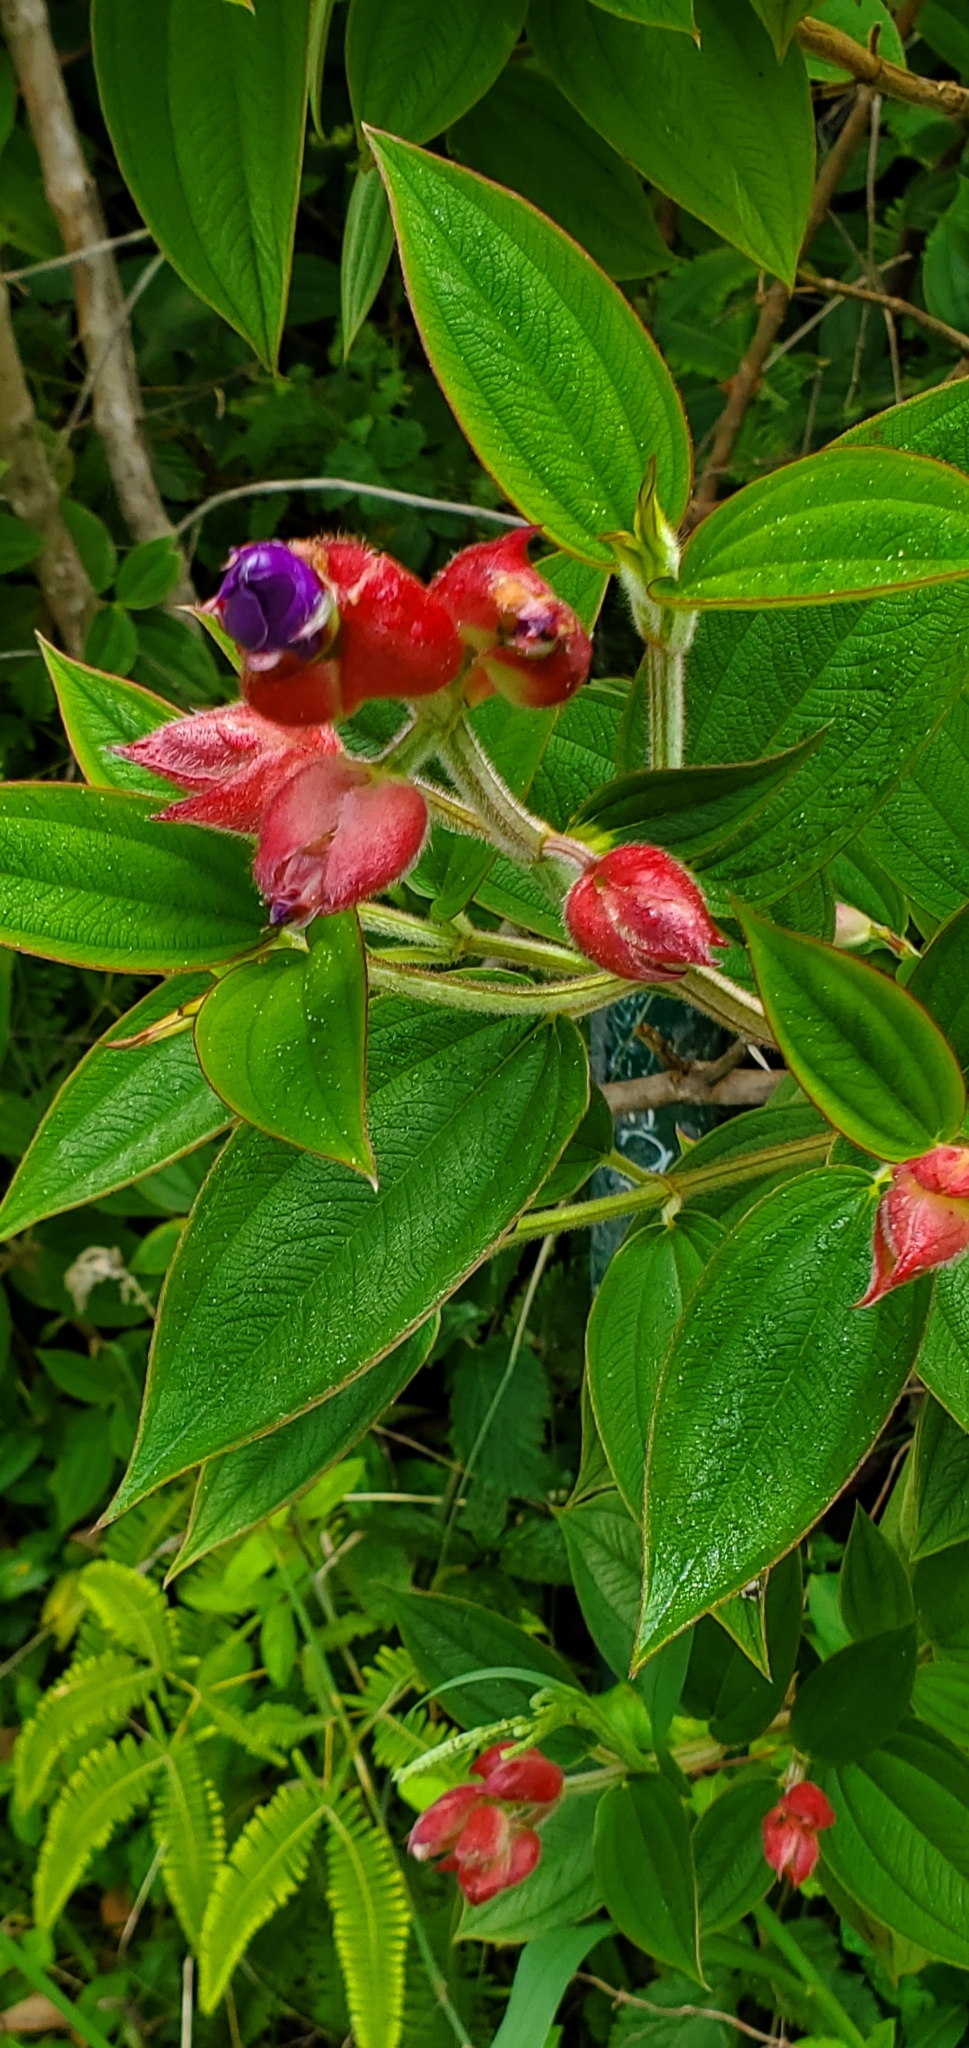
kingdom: Plantae
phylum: Tracheophyta
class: Magnoliopsida
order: Myrtales
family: Melastomataceae
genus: Pleroma
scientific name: Pleroma urvilleanum
